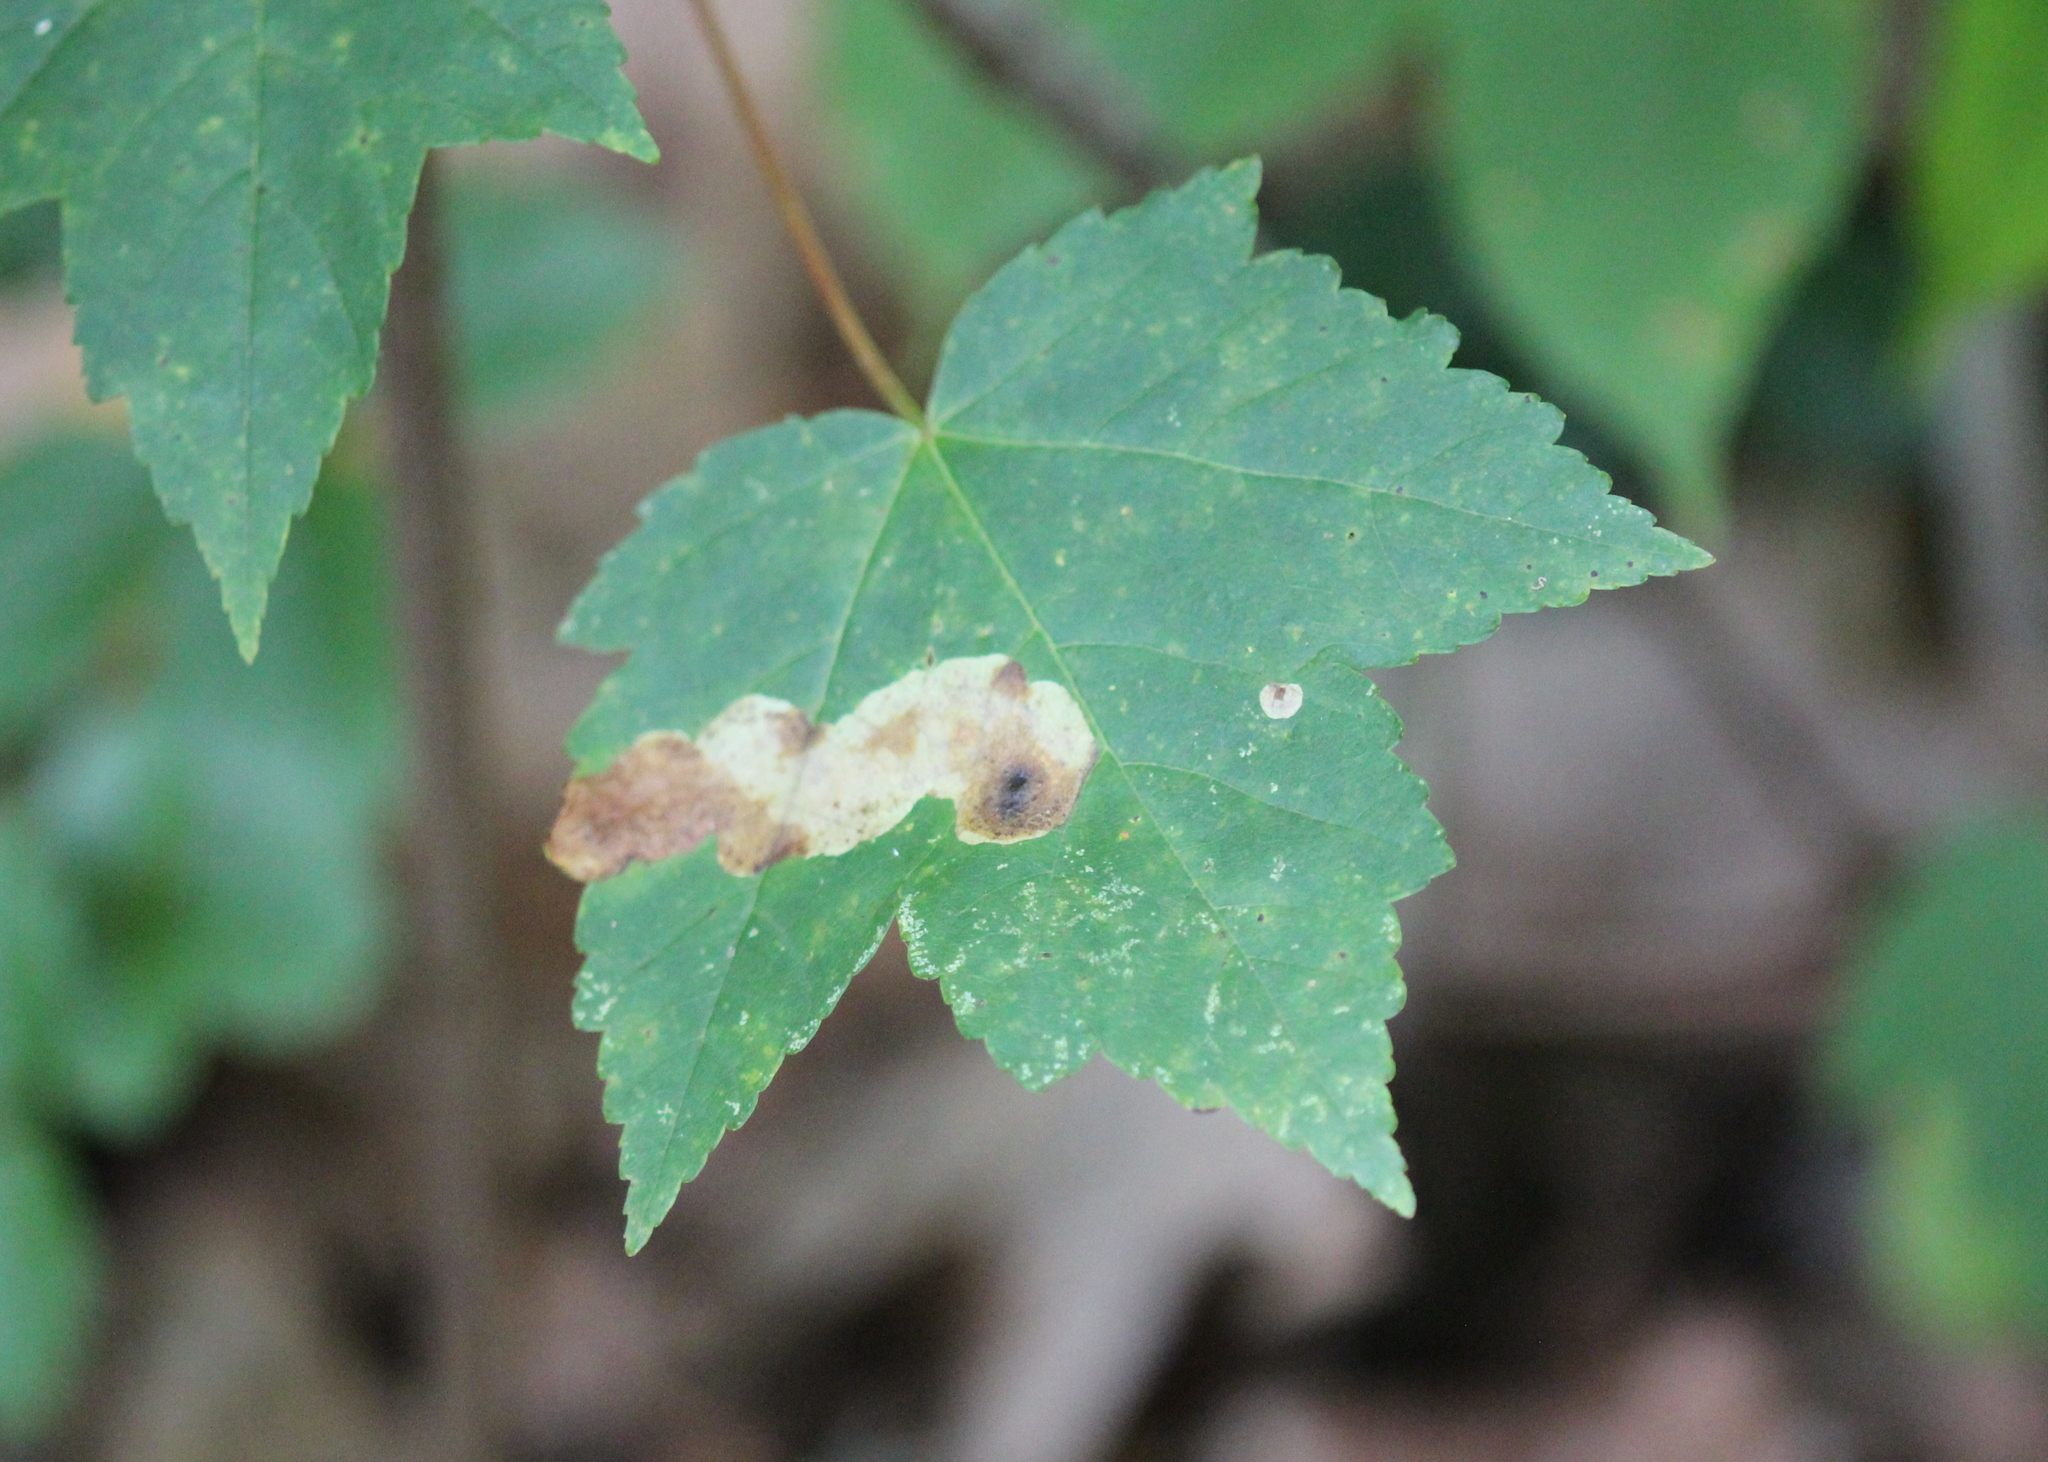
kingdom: Plantae
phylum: Tracheophyta
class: Magnoliopsida
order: Sapindales
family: Sapindaceae
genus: Acer
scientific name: Acer rubrum
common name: Red maple
